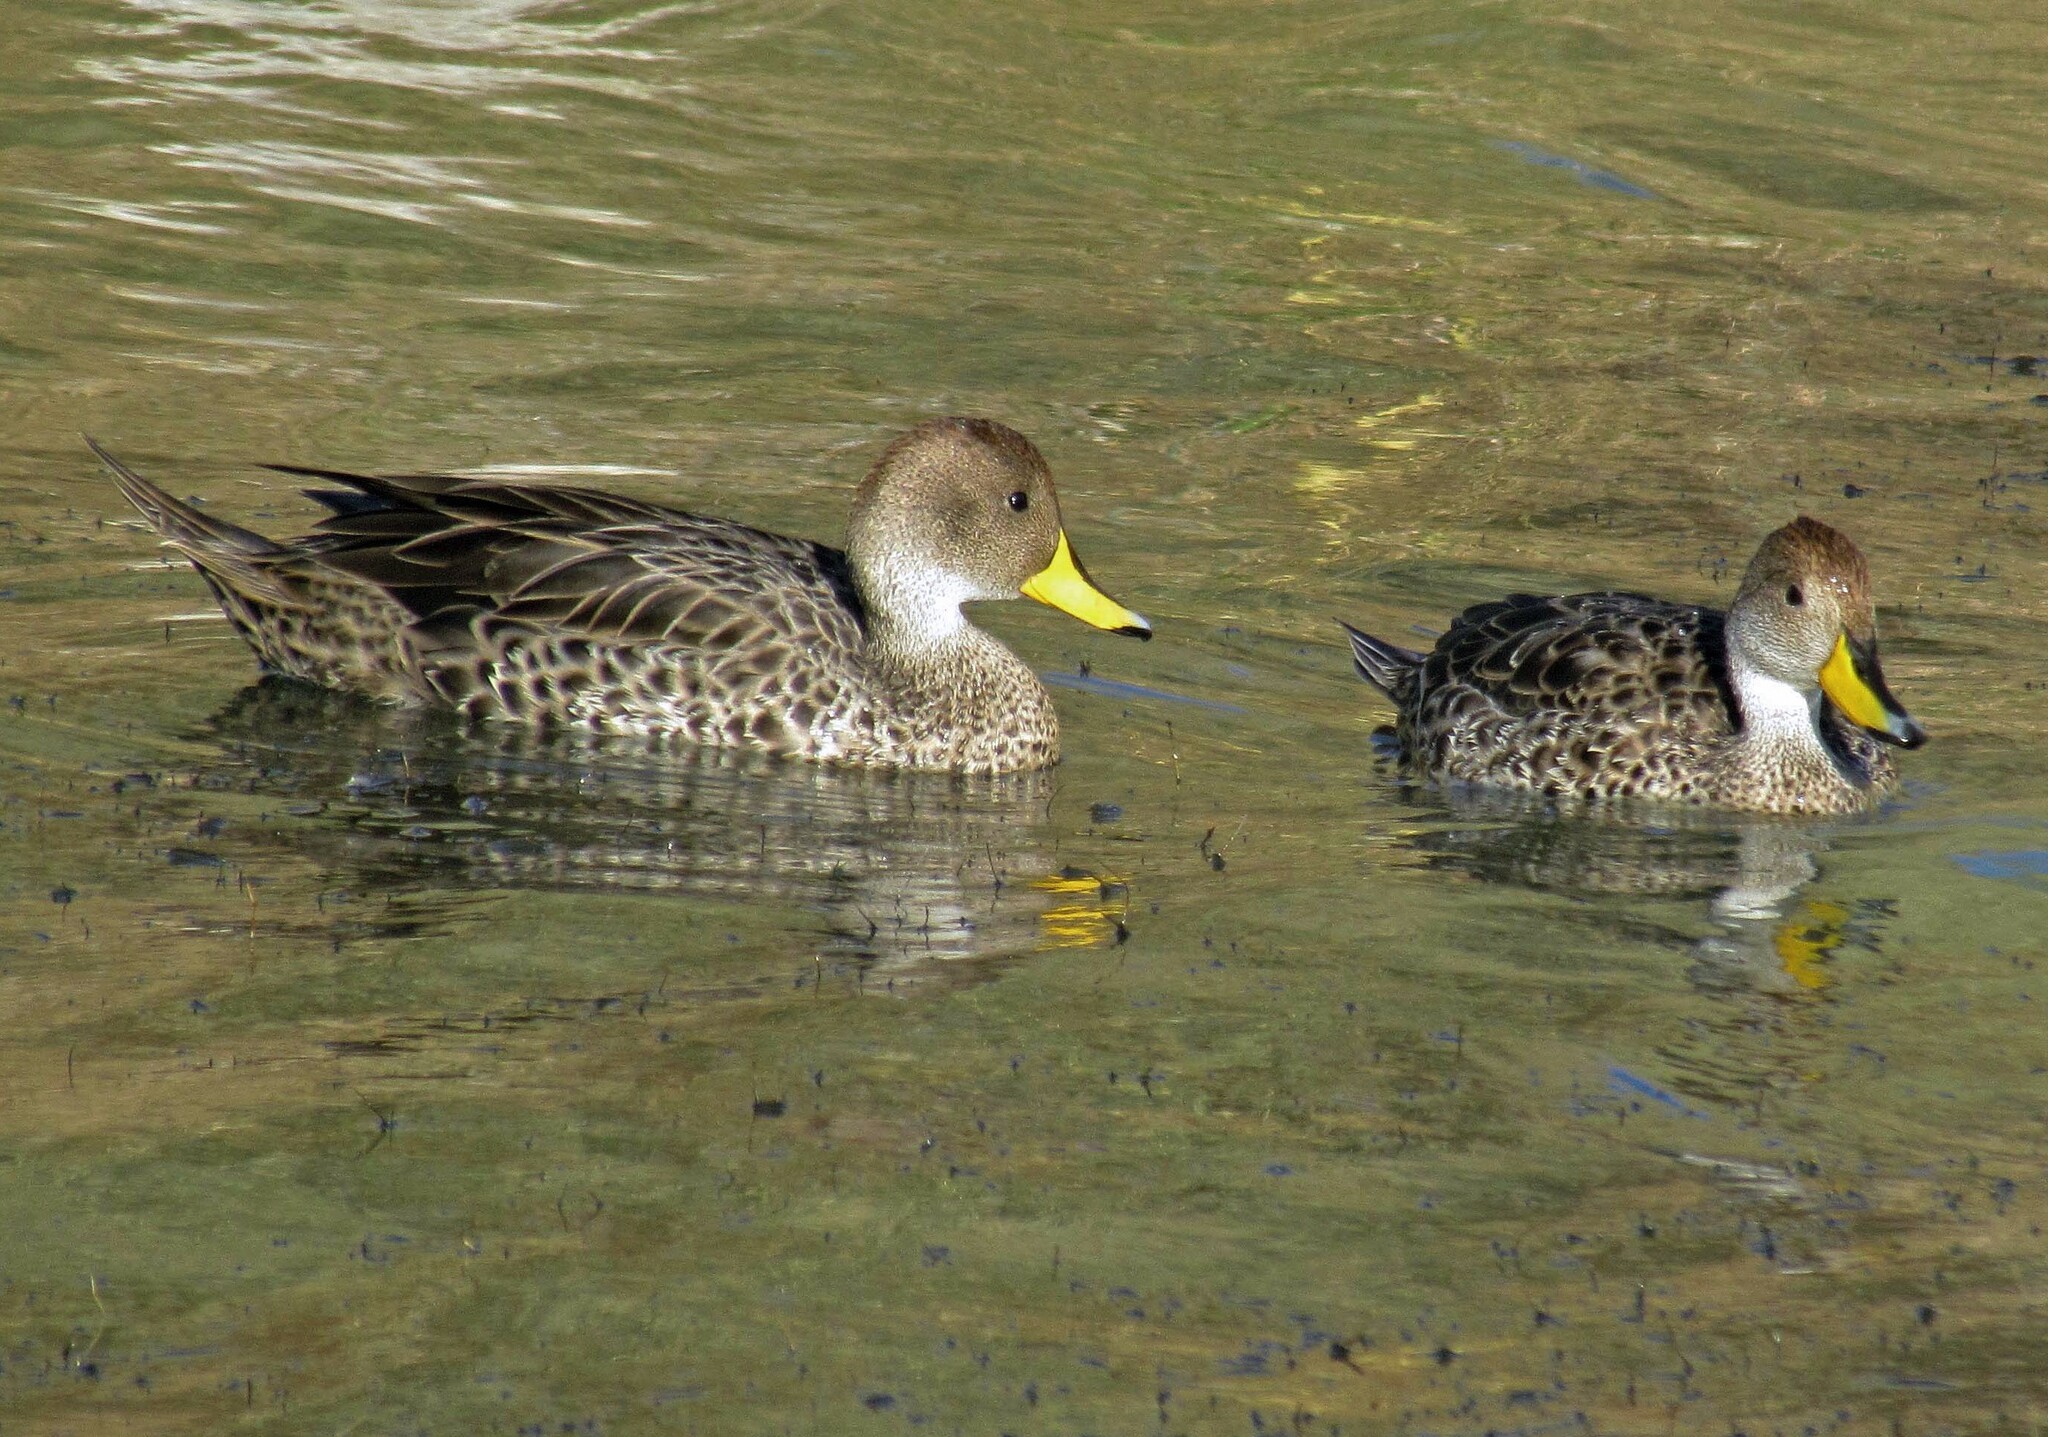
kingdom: Animalia
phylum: Chordata
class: Aves
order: Anseriformes
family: Anatidae
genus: Anas
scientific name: Anas georgica
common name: Yellow-billed pintail
